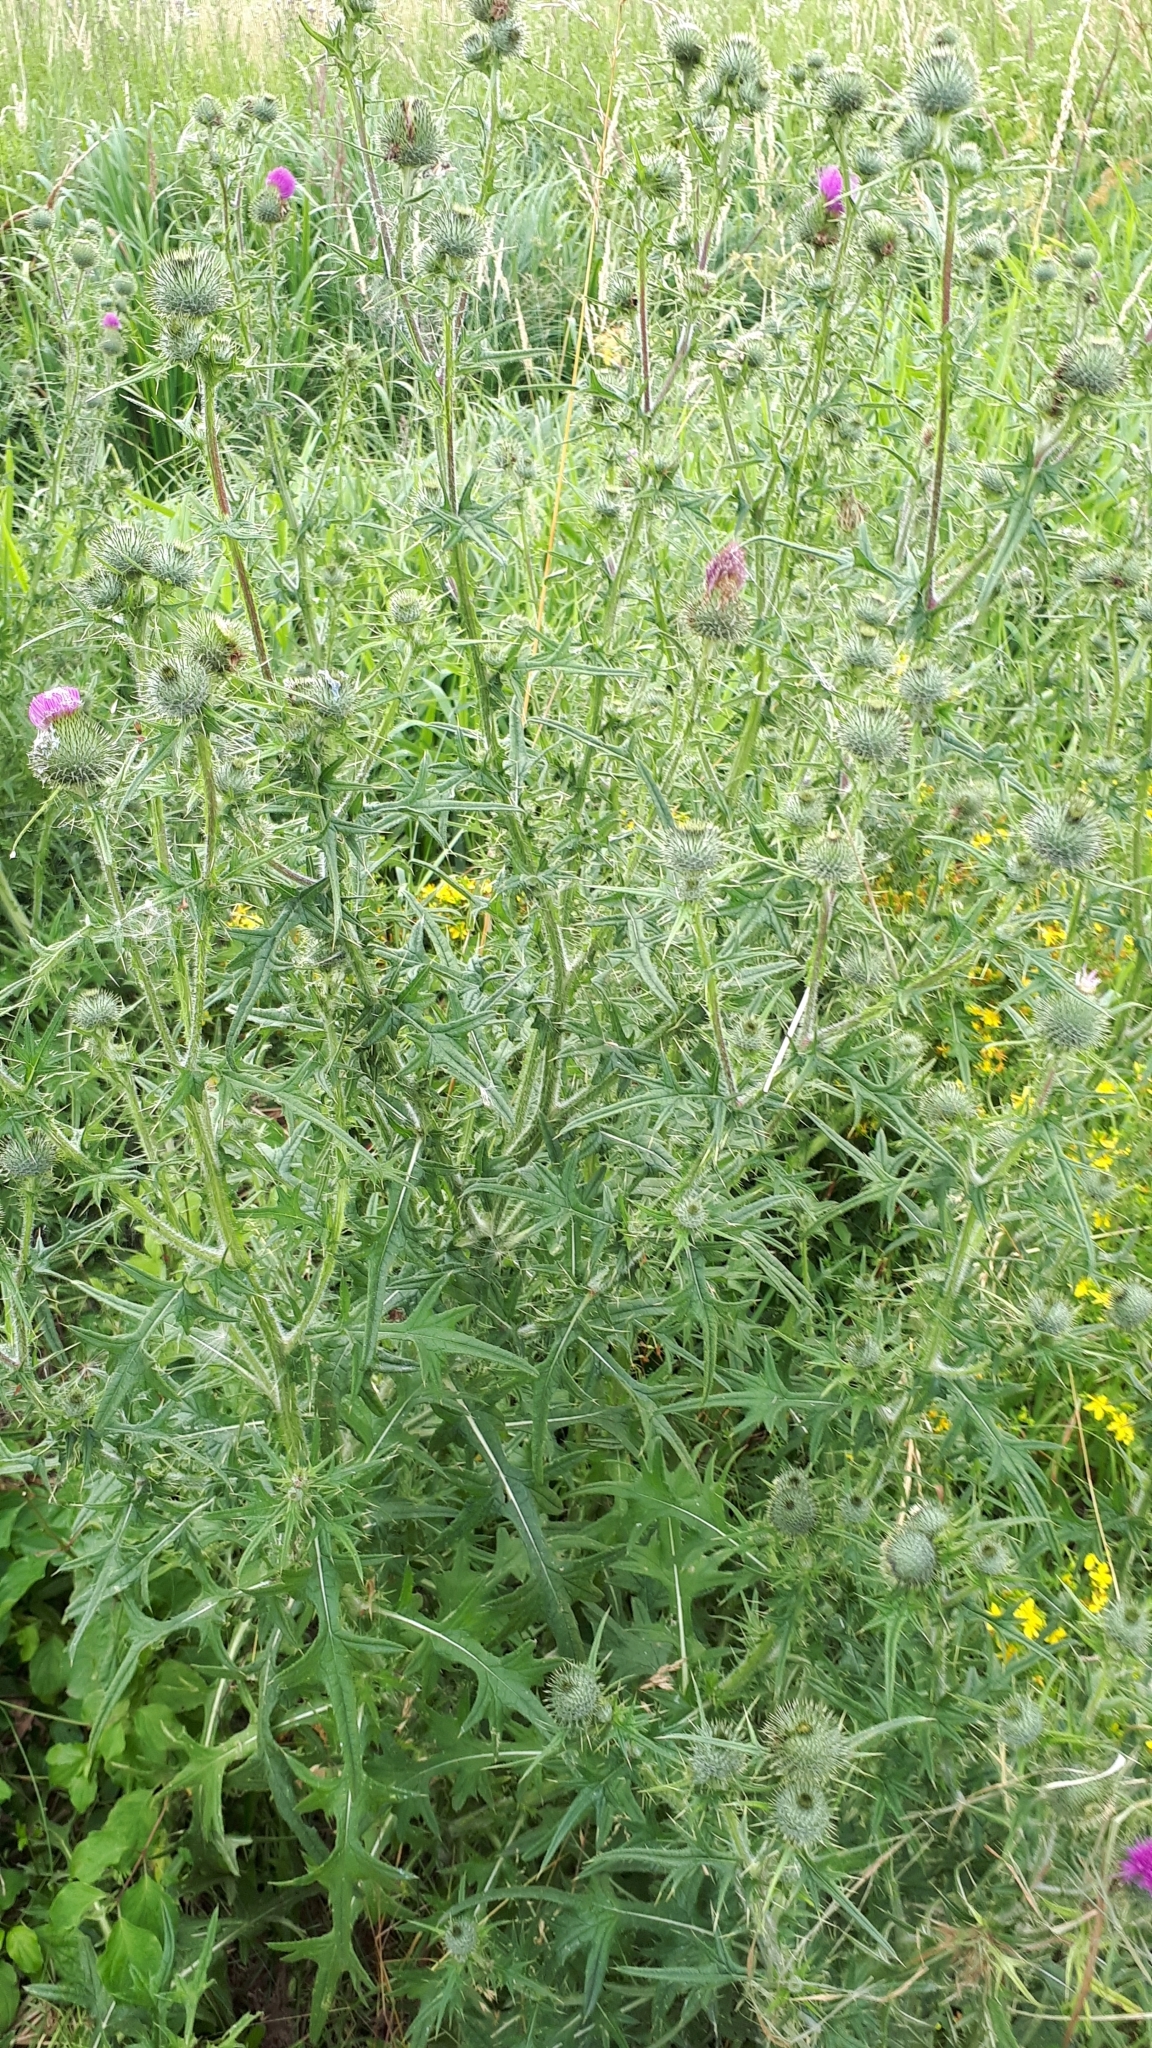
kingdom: Plantae
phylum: Tracheophyta
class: Magnoliopsida
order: Asterales
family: Asteraceae
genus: Cirsium
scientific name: Cirsium vulgare
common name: Bull thistle
